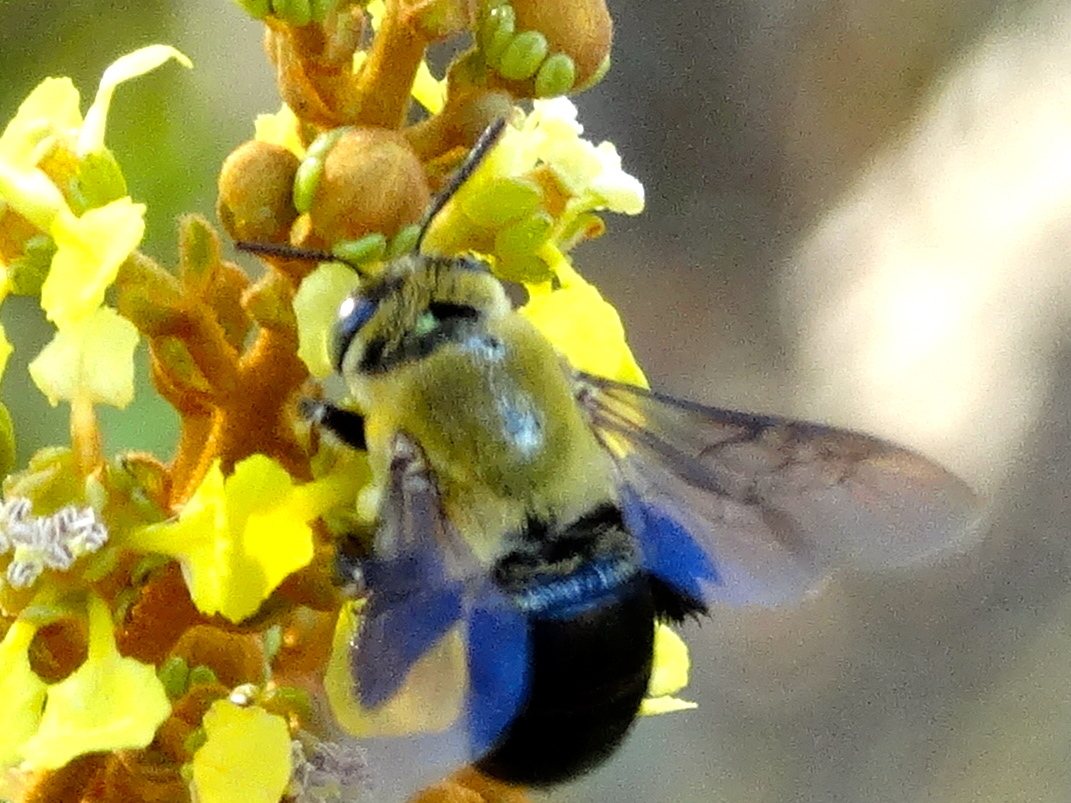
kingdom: Animalia
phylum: Arthropoda
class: Insecta
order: Hymenoptera
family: Apidae
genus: Centris
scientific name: Centris nitida
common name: Oil-collecting bee
